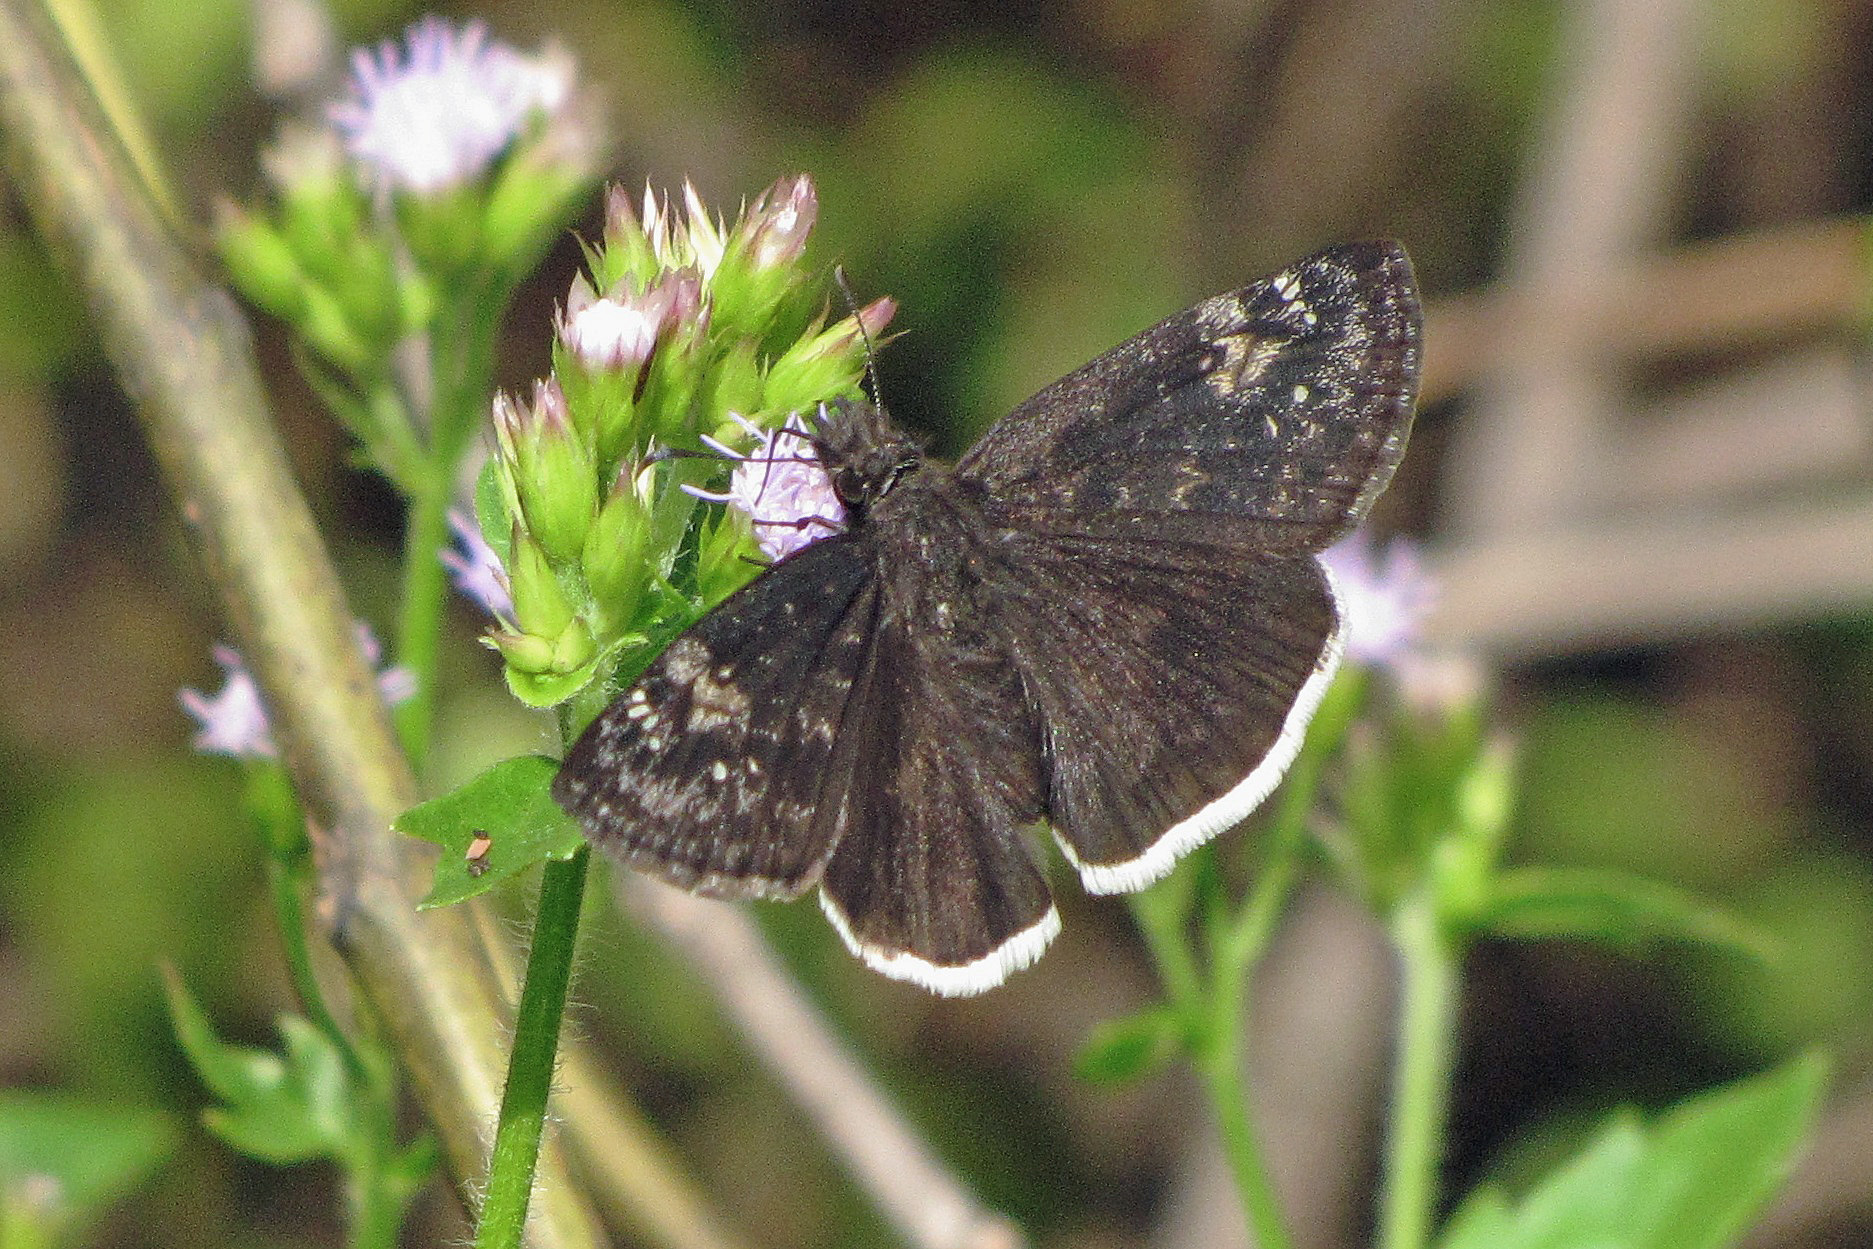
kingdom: Animalia
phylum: Arthropoda
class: Insecta
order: Lepidoptera
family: Hesperiidae
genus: Erynnis
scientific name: Erynnis funeralis
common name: Funereal duskywing
